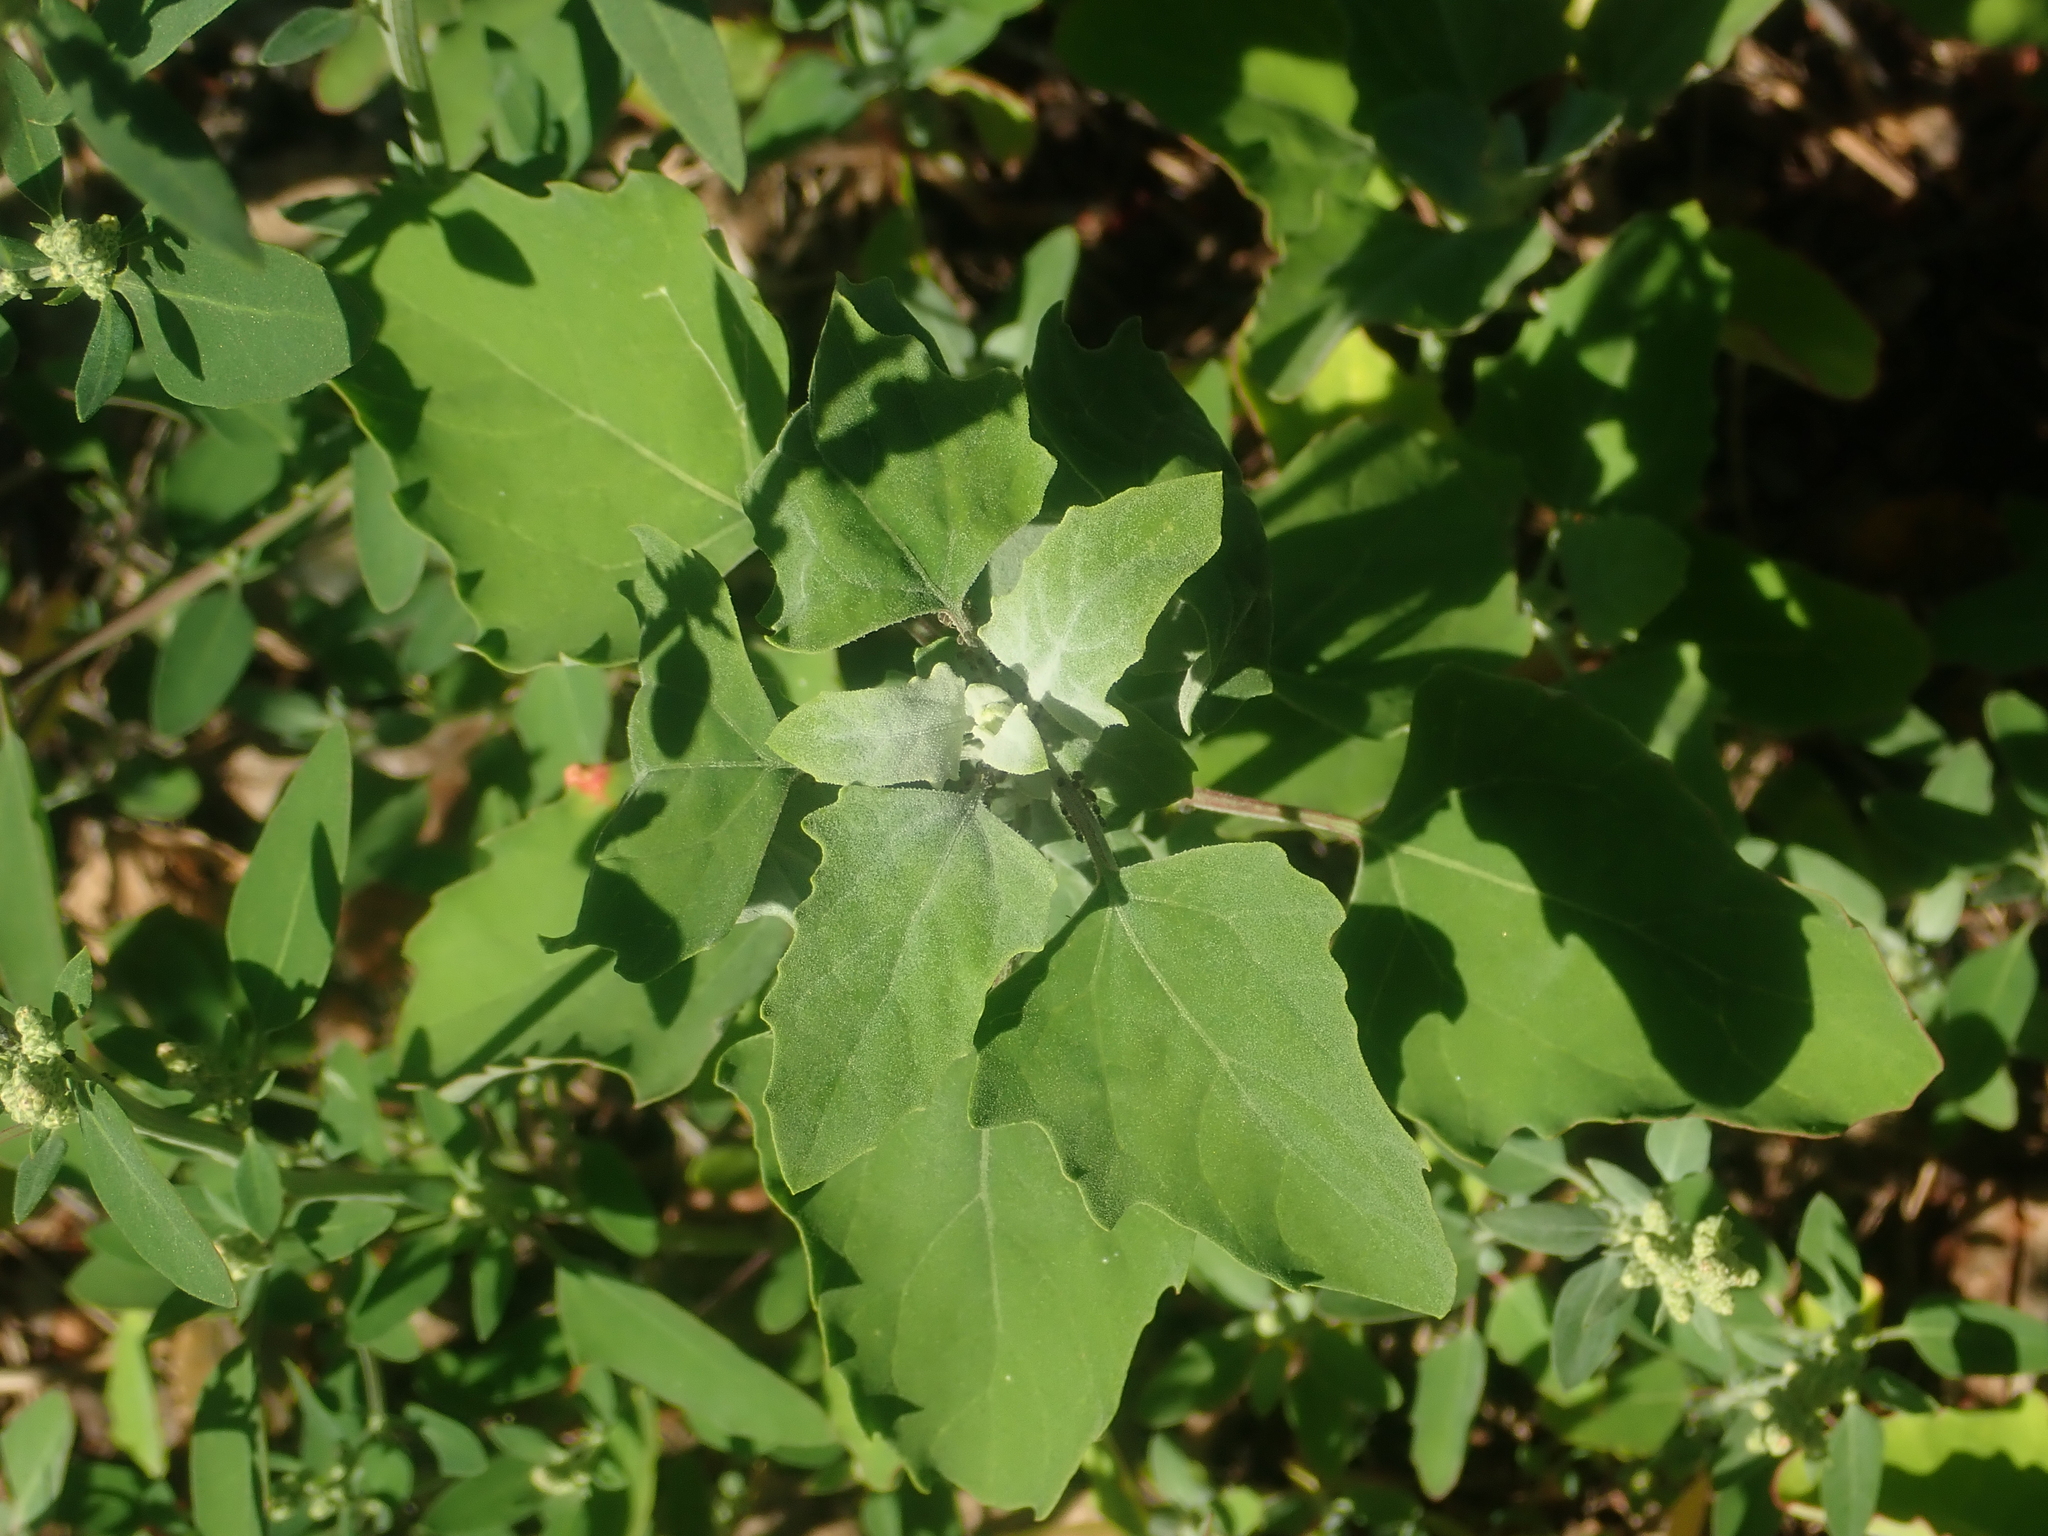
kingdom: Plantae
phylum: Tracheophyta
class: Magnoliopsida
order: Caryophyllales
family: Amaranthaceae
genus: Chenopodium
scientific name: Chenopodium album
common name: Fat-hen
